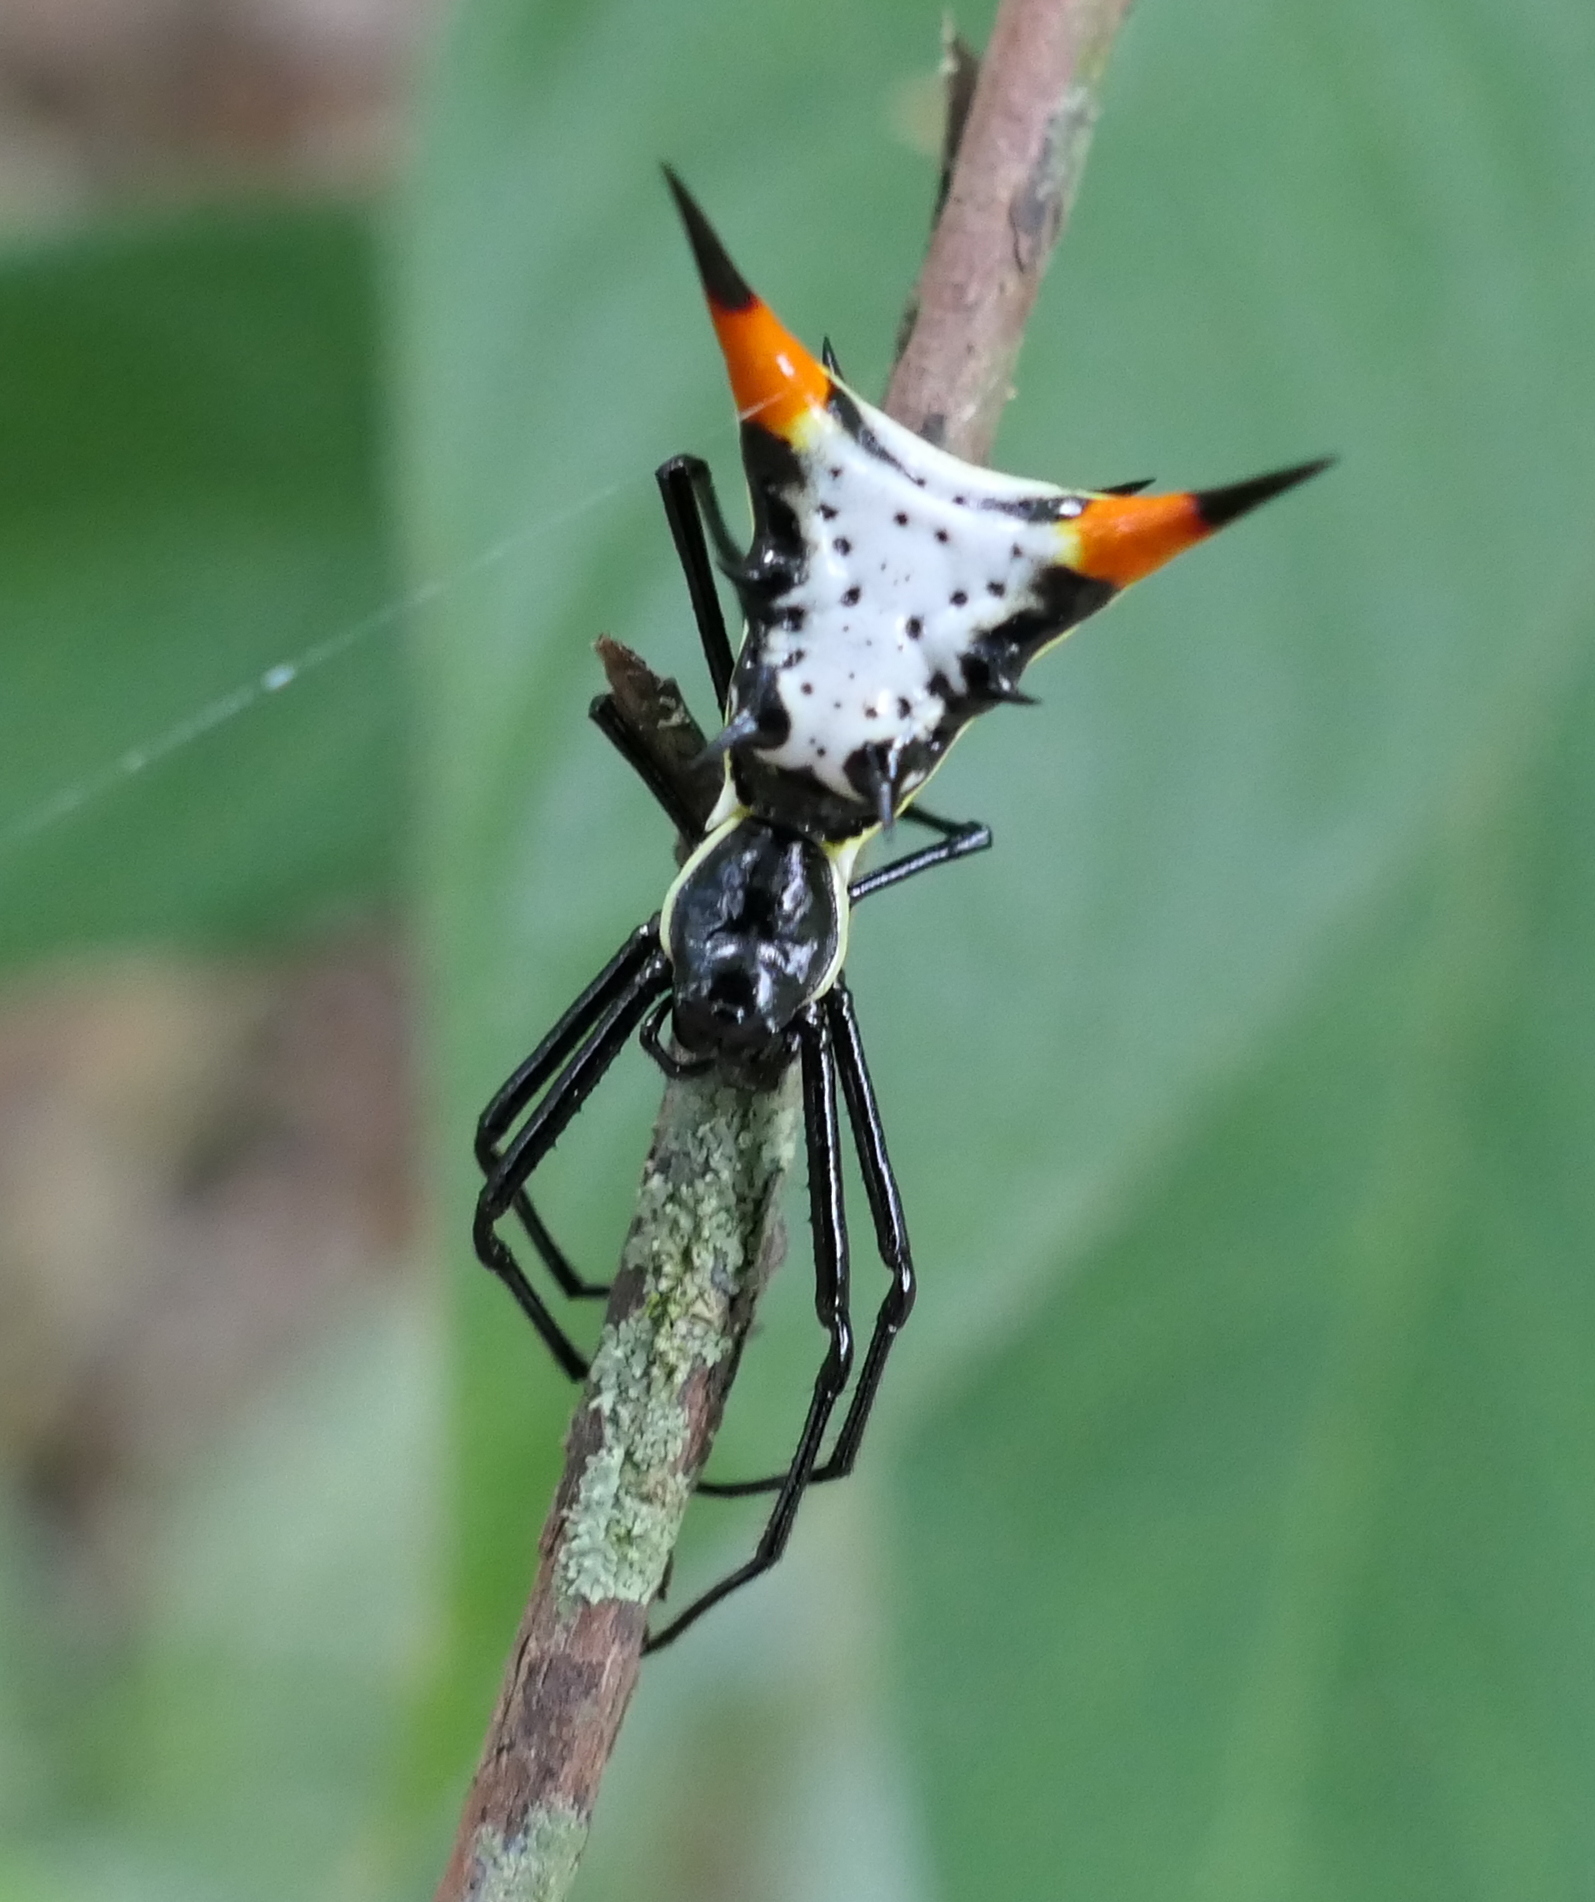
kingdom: Animalia
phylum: Arthropoda
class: Arachnida
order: Araneae
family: Araneidae
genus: Micrathena
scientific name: Micrathena schreibersi
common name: Orb weavers
